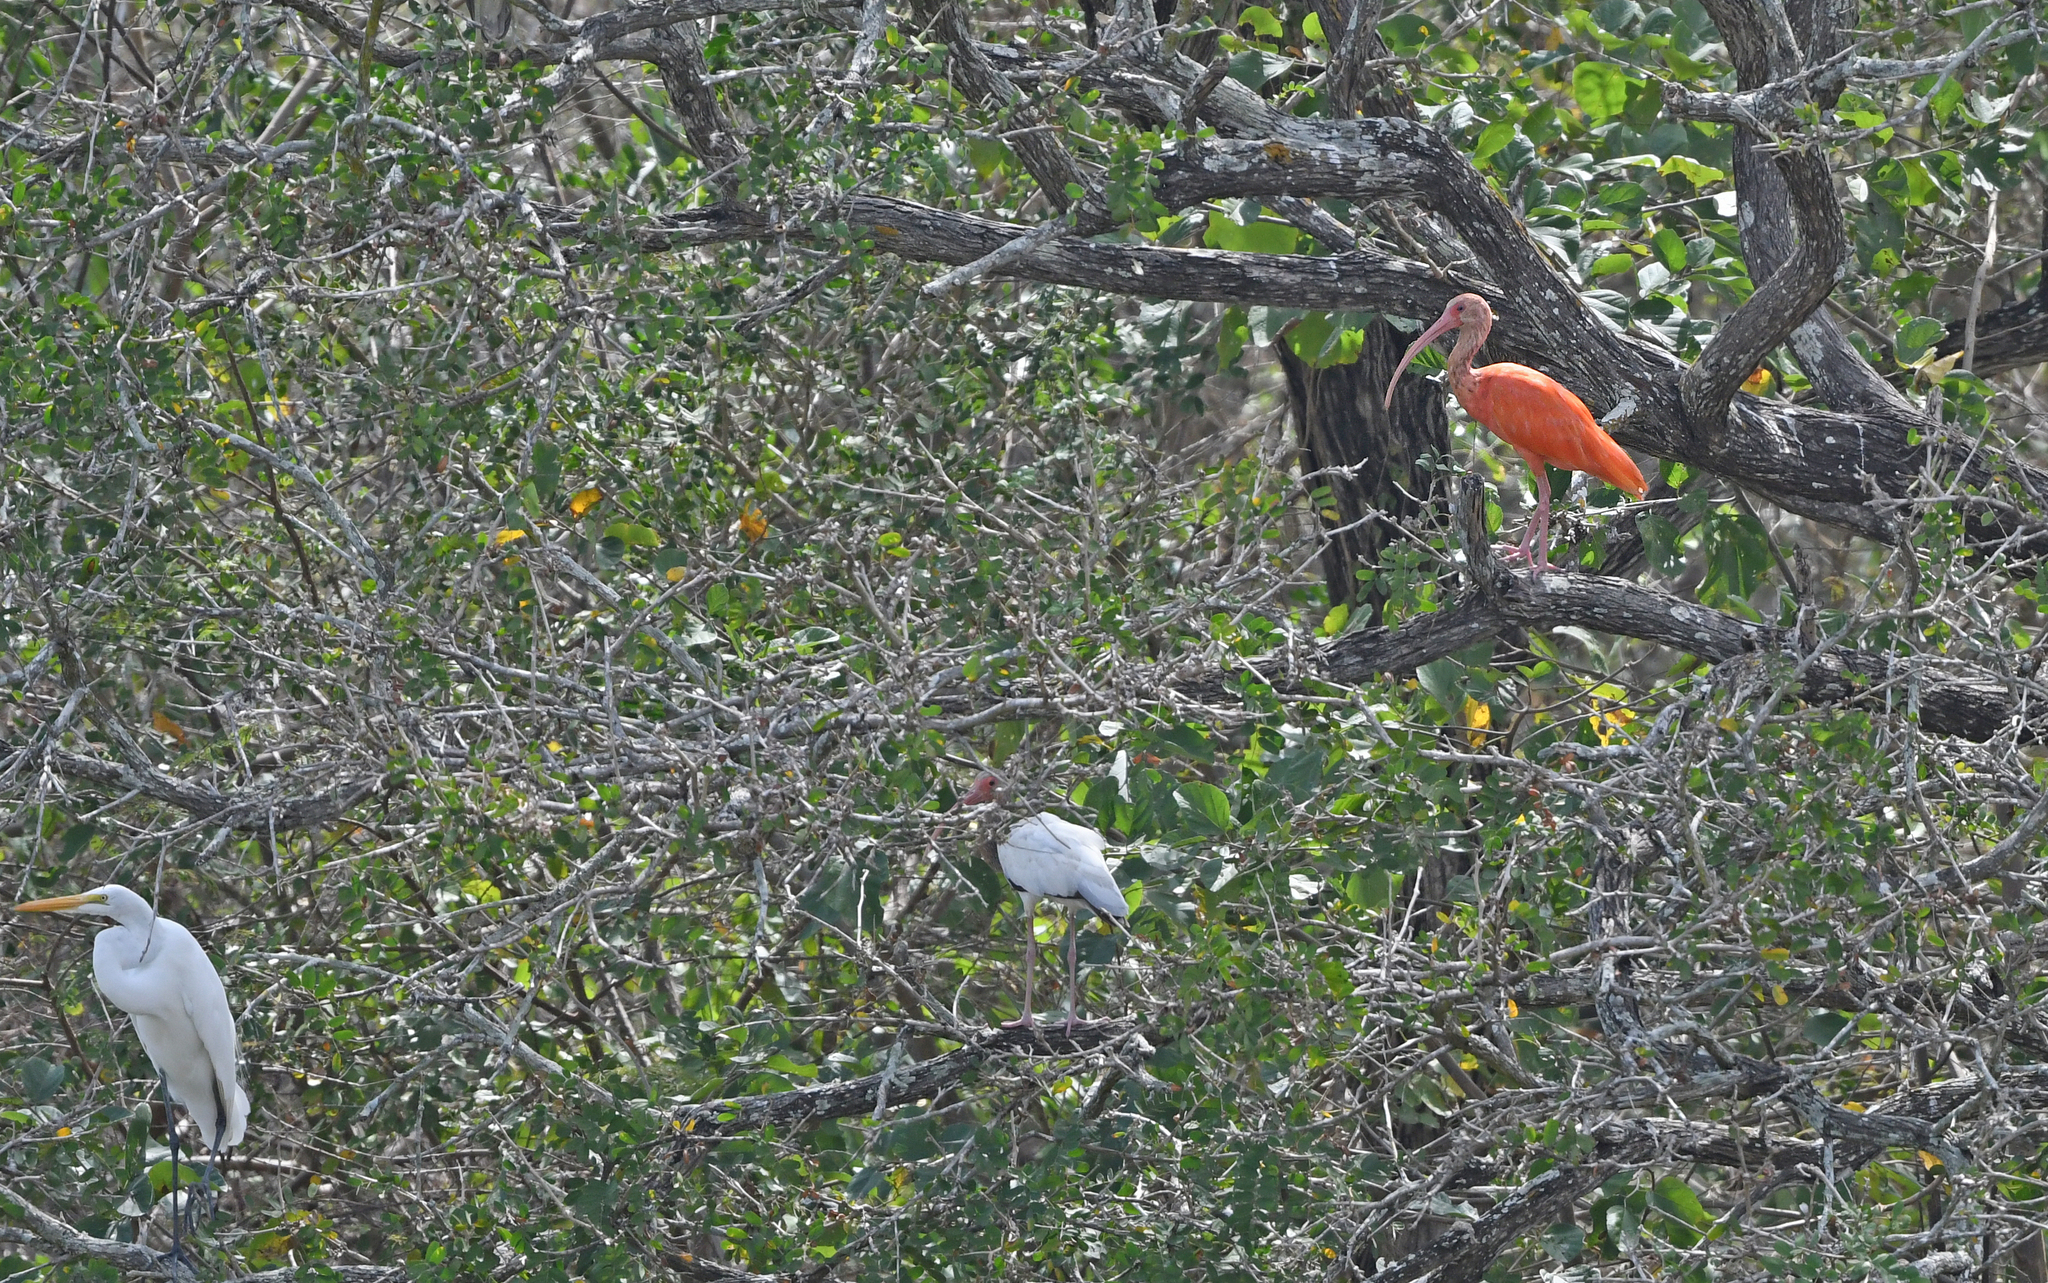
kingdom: Animalia
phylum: Chordata
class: Aves
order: Pelecaniformes
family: Threskiornithidae
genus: Eudocimus
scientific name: Eudocimus ruber
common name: Scarlet ibis
